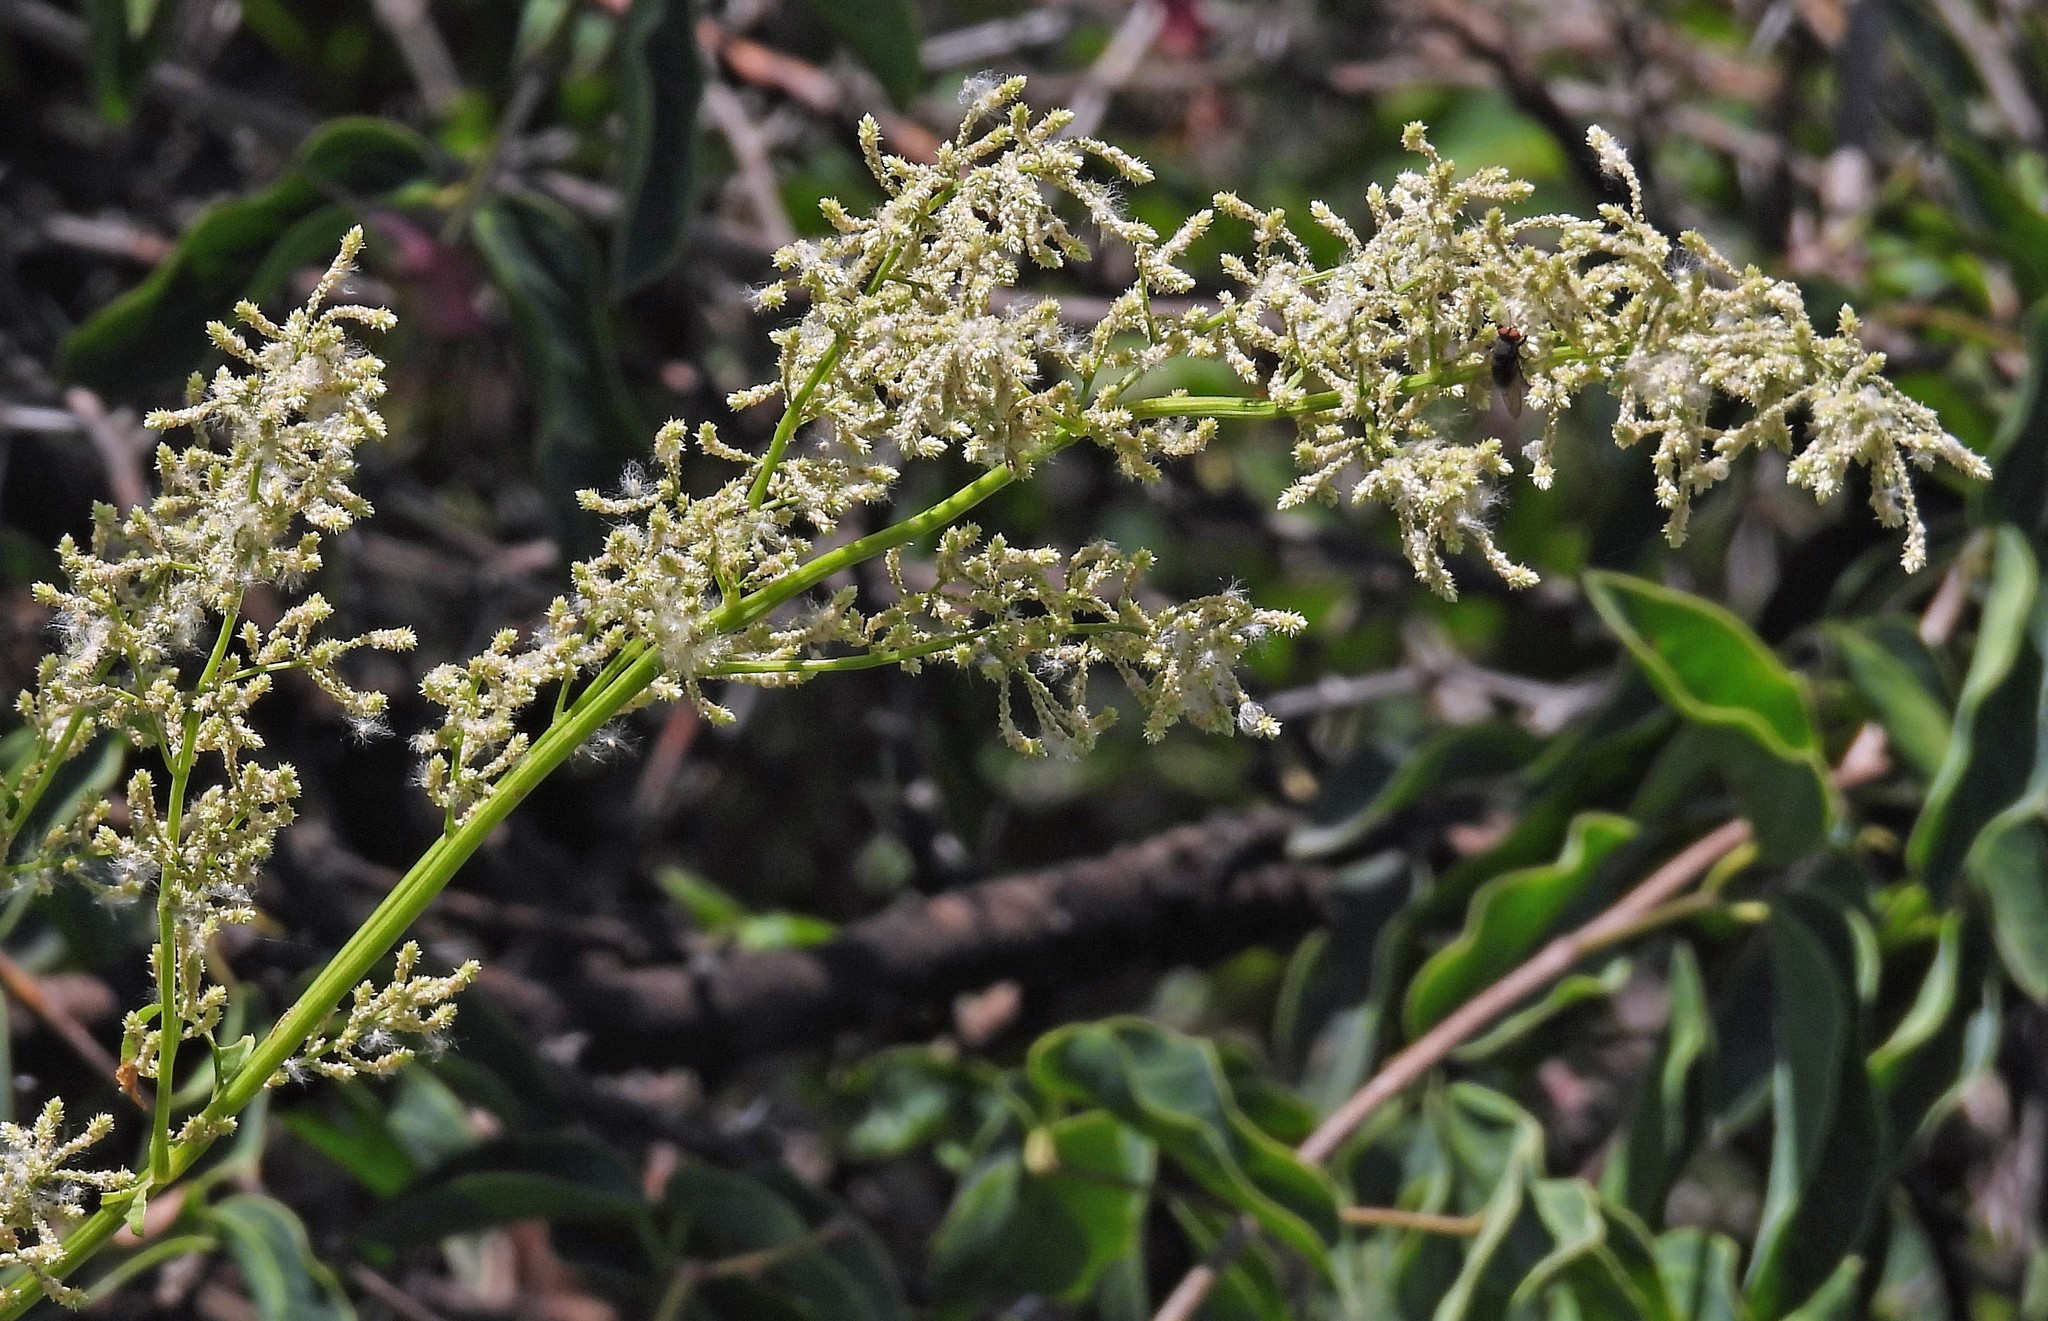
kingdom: Plantae
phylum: Tracheophyta
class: Magnoliopsida
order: Caryophyllales
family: Amaranthaceae
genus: Iresine
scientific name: Iresine diffusa
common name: Juba's-bush
